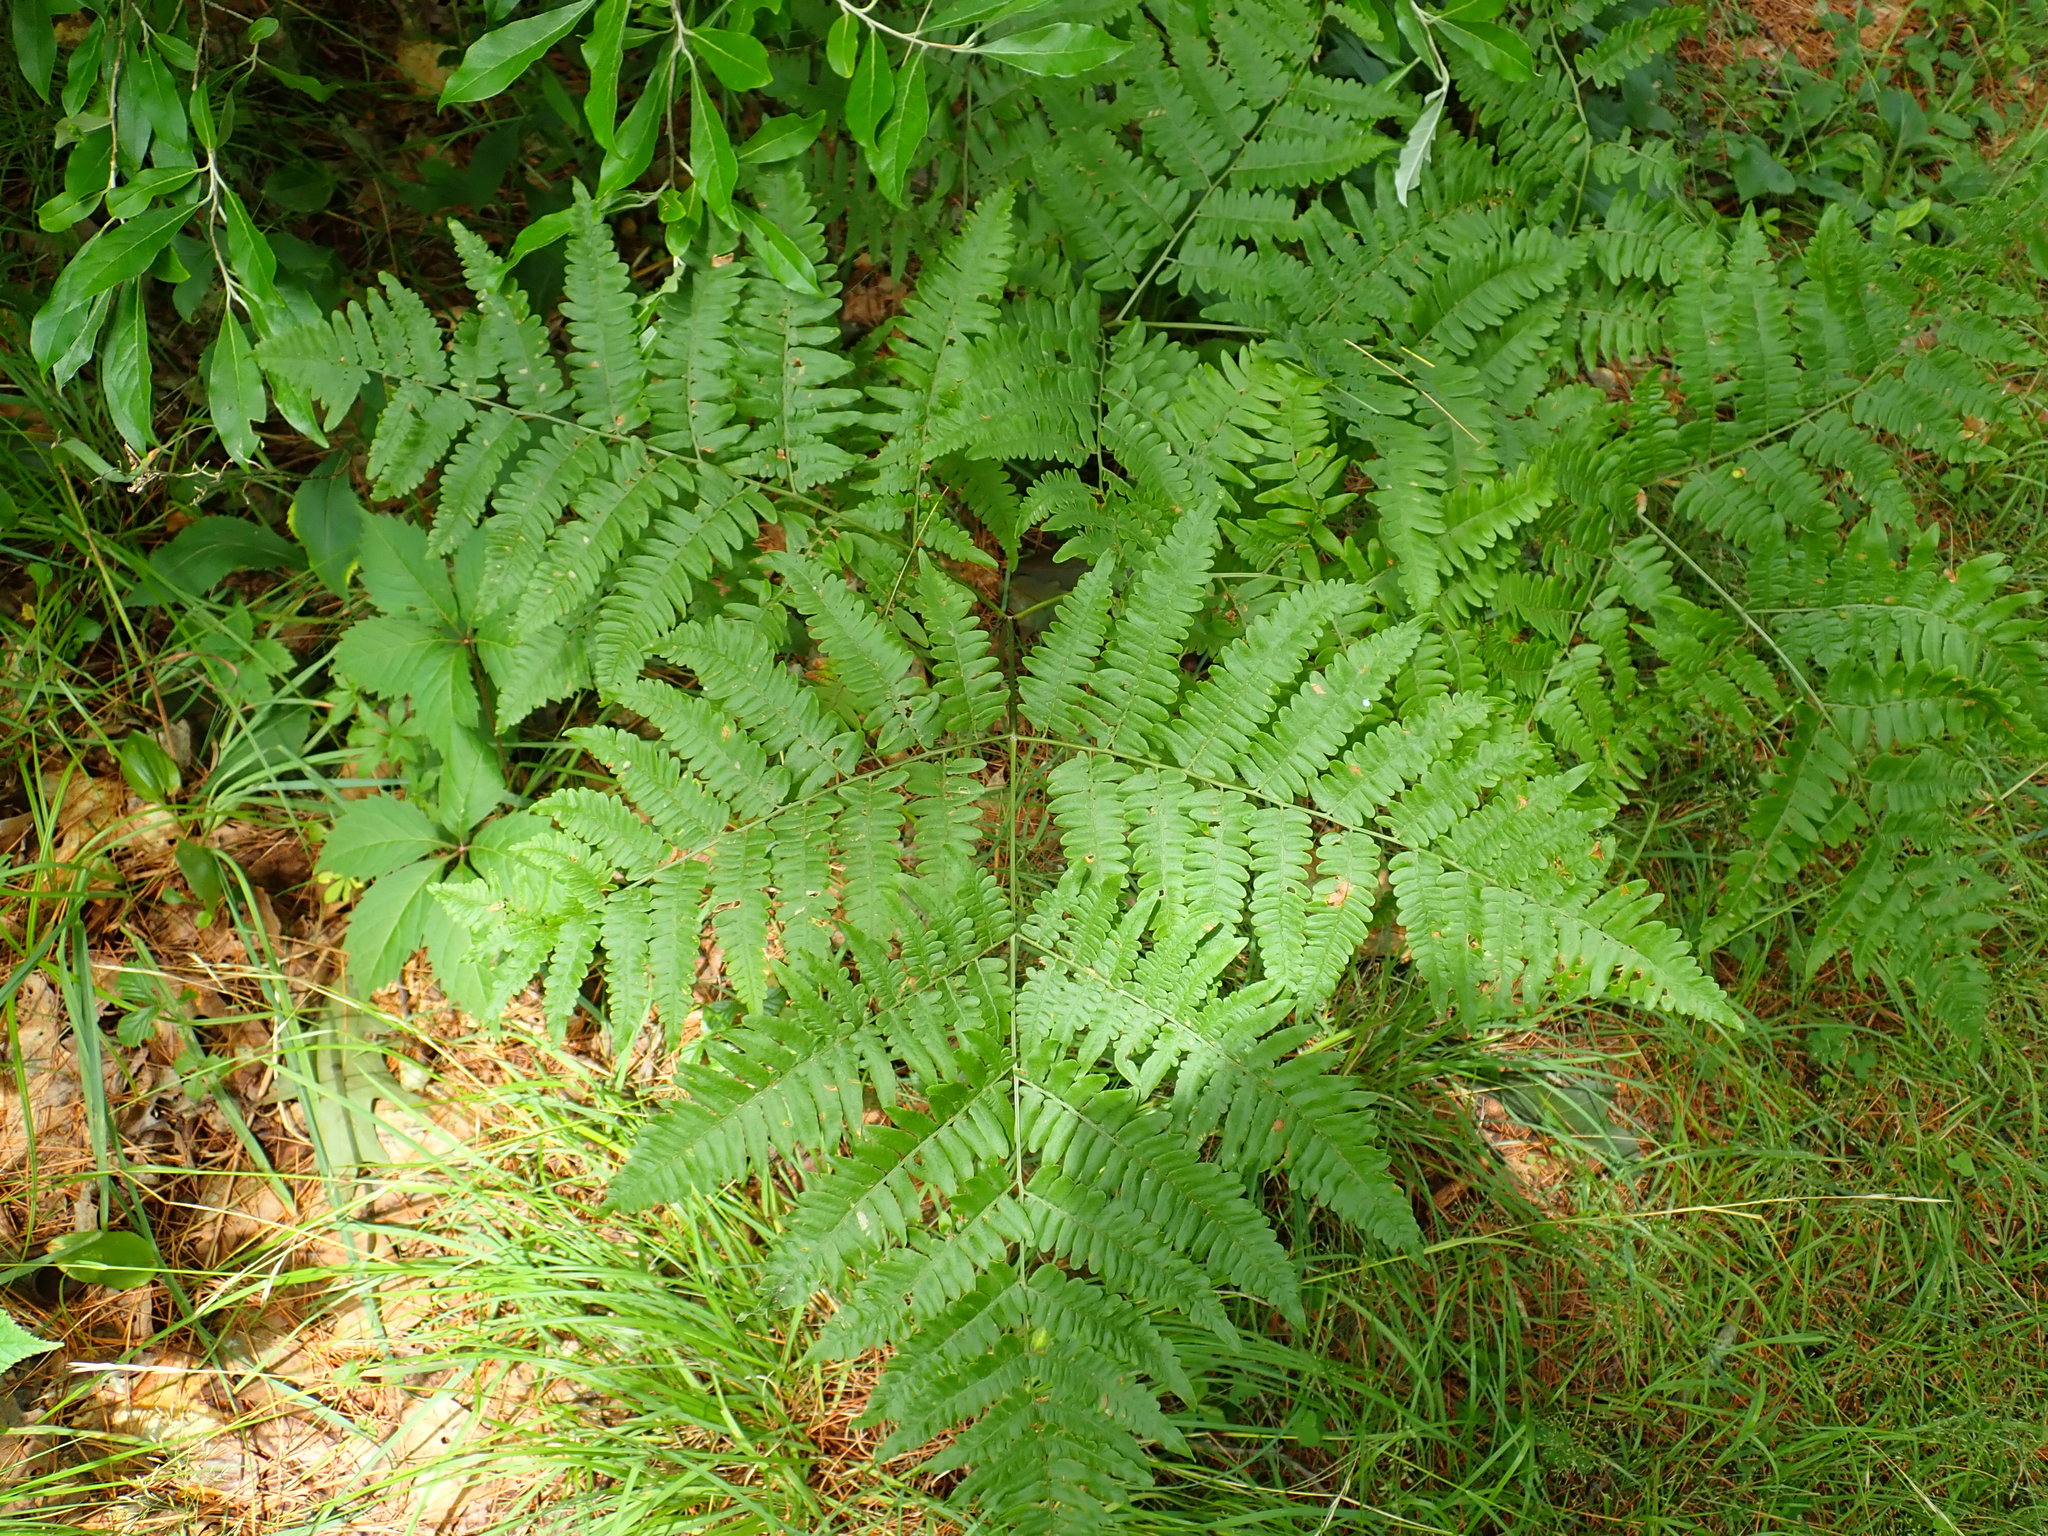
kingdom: Plantae
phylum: Tracheophyta
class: Polypodiopsida
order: Polypodiales
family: Dennstaedtiaceae
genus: Pteridium
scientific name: Pteridium aquilinum
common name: Bracken
